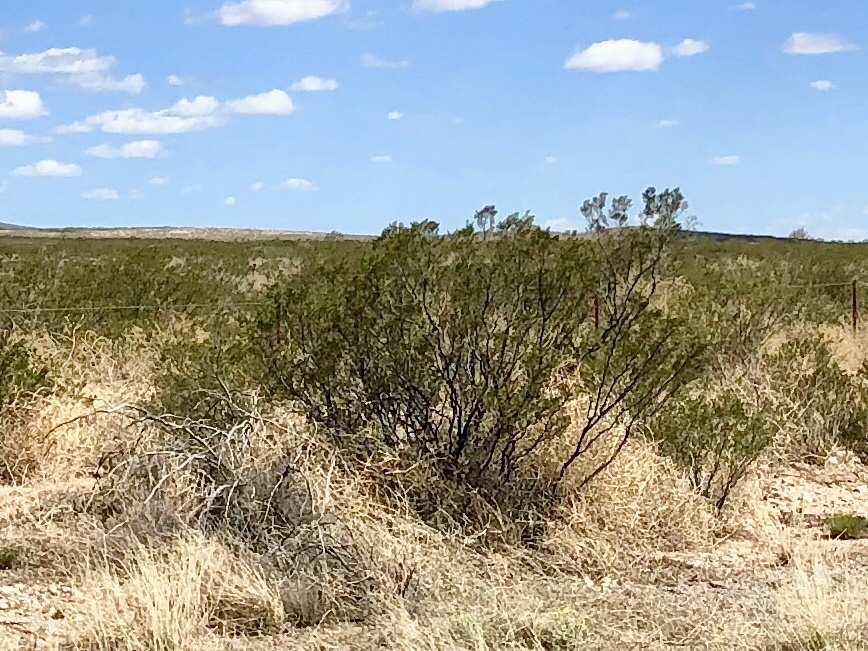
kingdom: Plantae
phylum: Tracheophyta
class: Magnoliopsida
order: Zygophyllales
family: Zygophyllaceae
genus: Larrea
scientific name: Larrea tridentata
